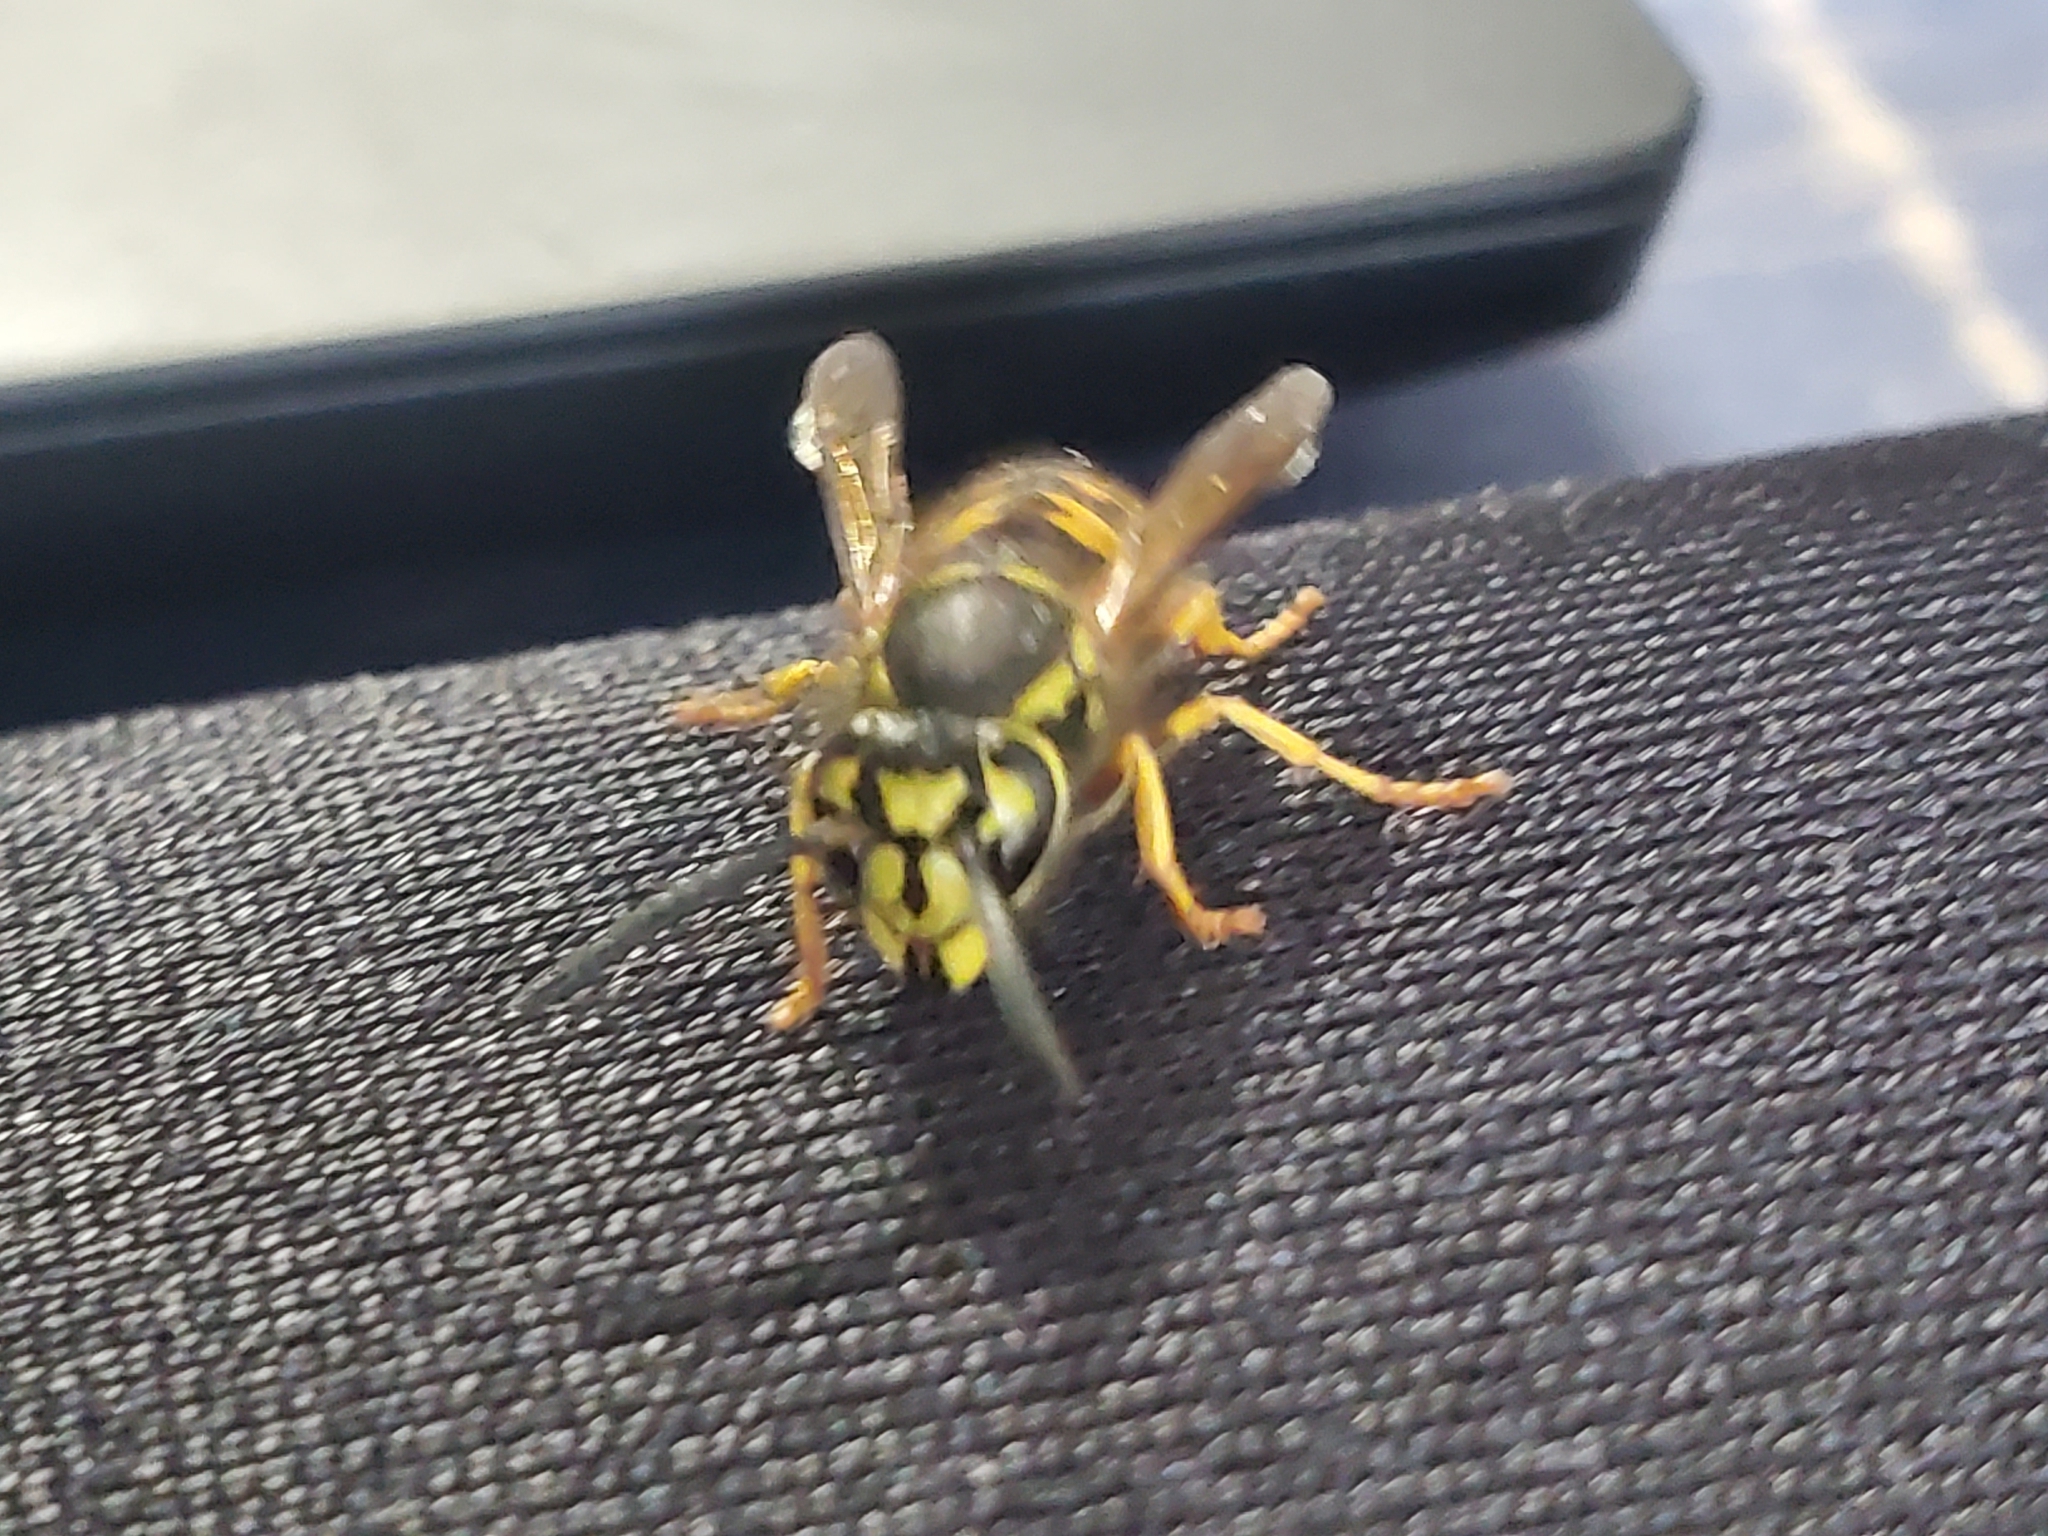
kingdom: Animalia
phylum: Arthropoda
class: Insecta
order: Hymenoptera
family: Vespidae
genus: Vespula
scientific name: Vespula pensylvanica
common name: Western yellowjacket
